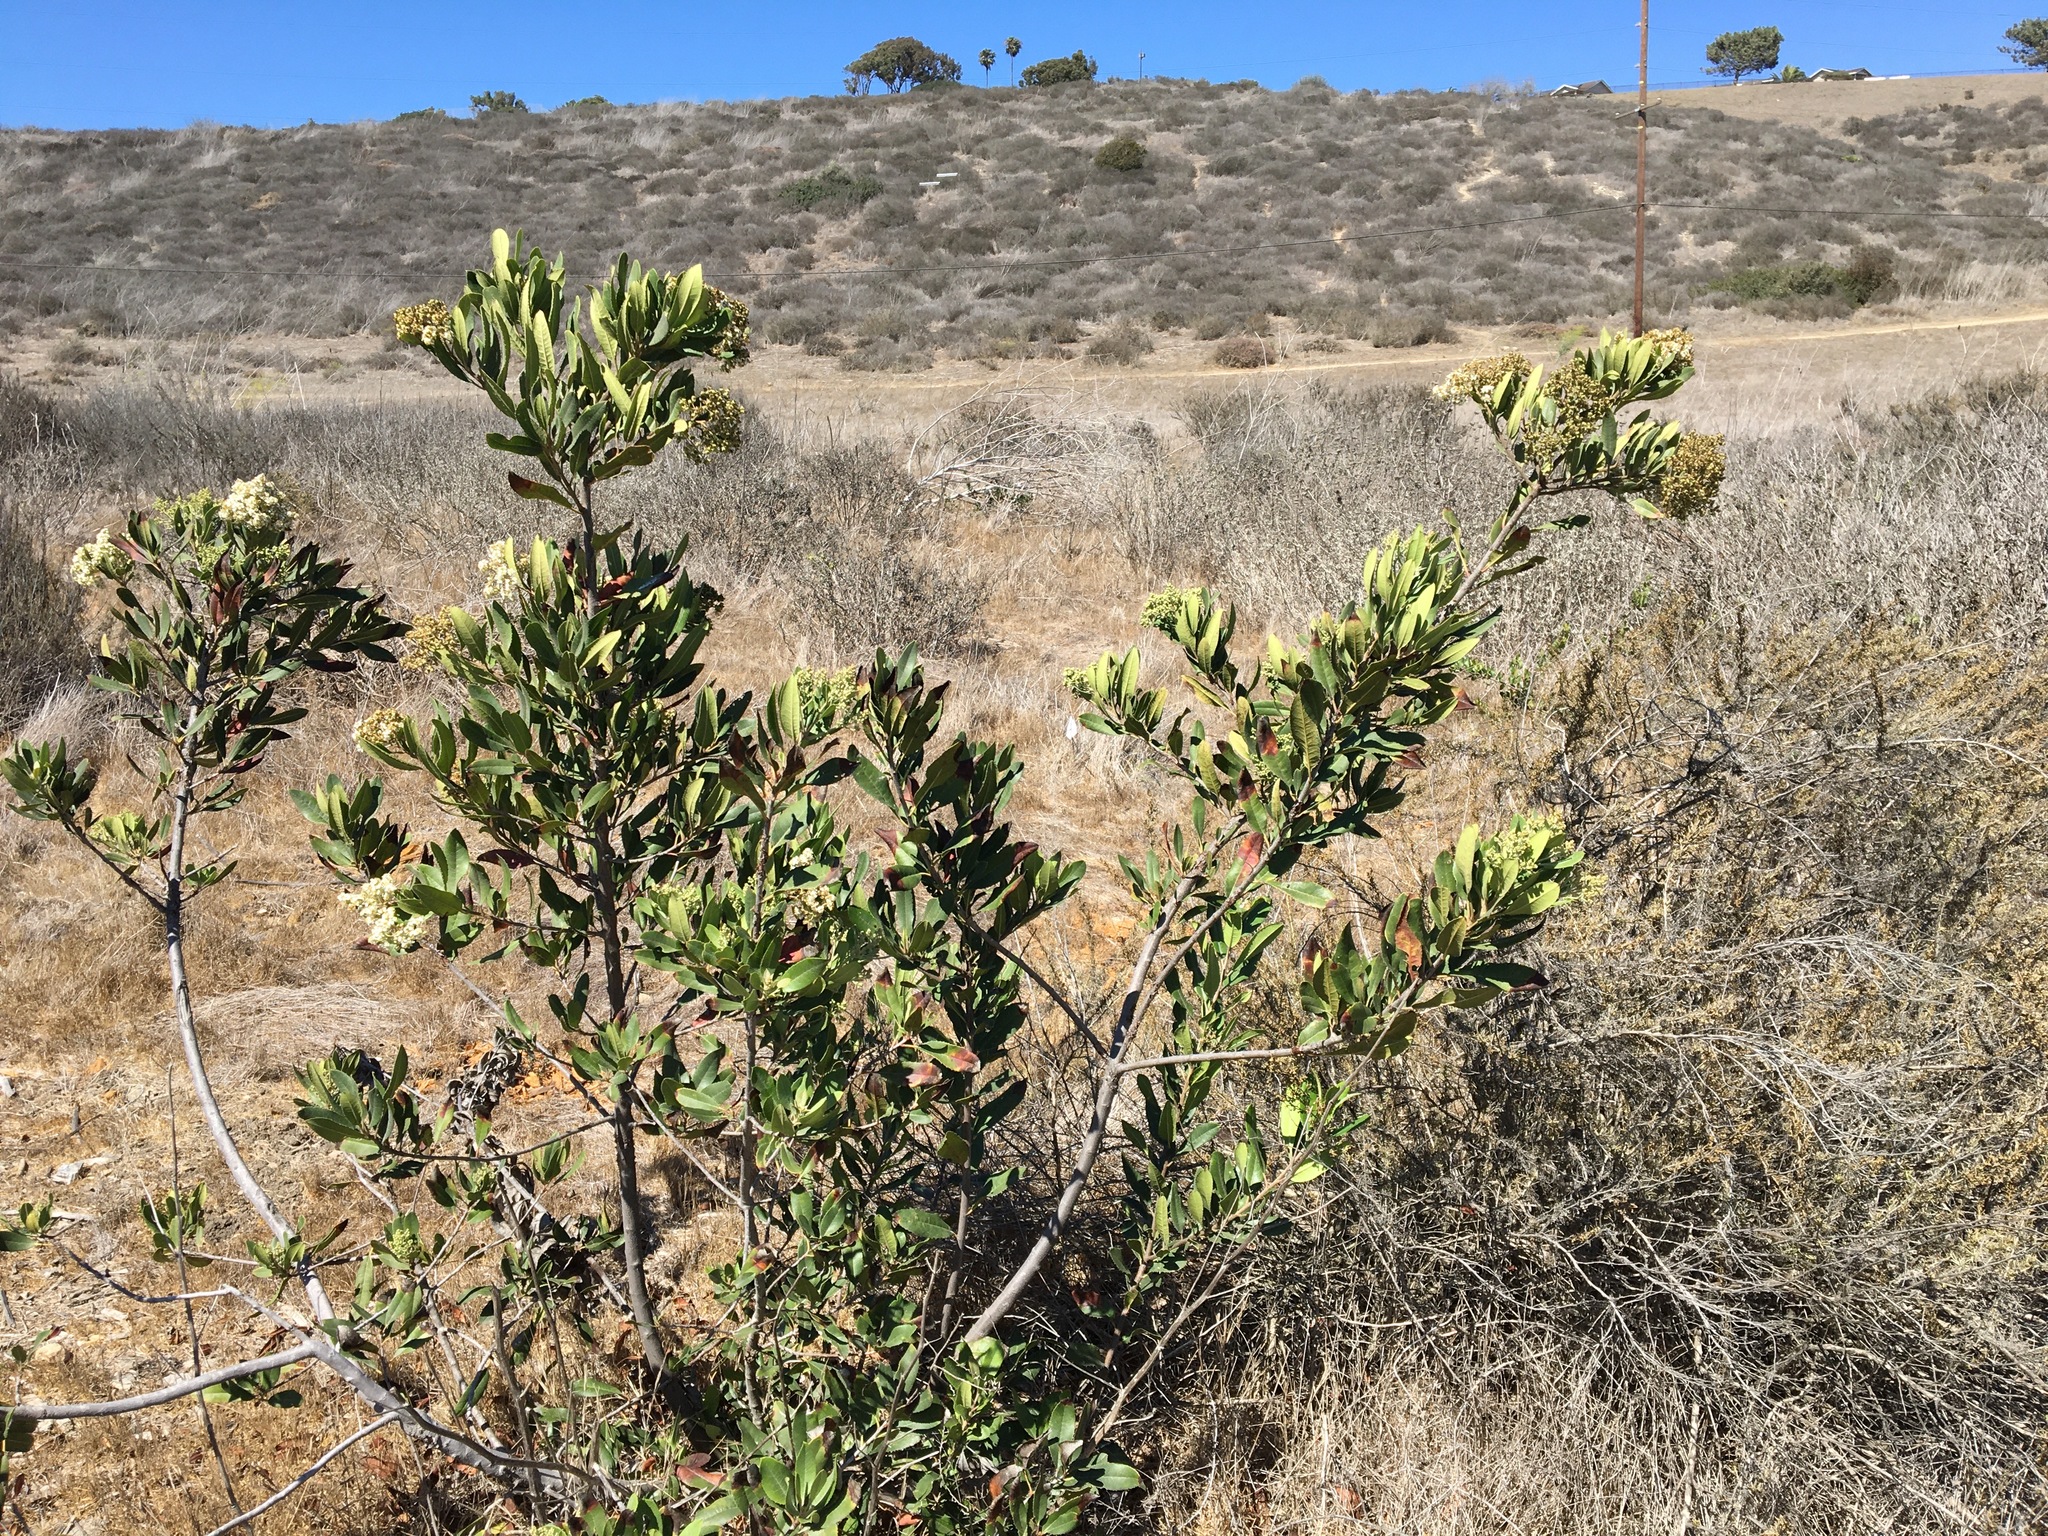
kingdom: Plantae
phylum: Tracheophyta
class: Magnoliopsida
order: Rosales
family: Rosaceae
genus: Heteromeles
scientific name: Heteromeles arbutifolia
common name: California-holly
